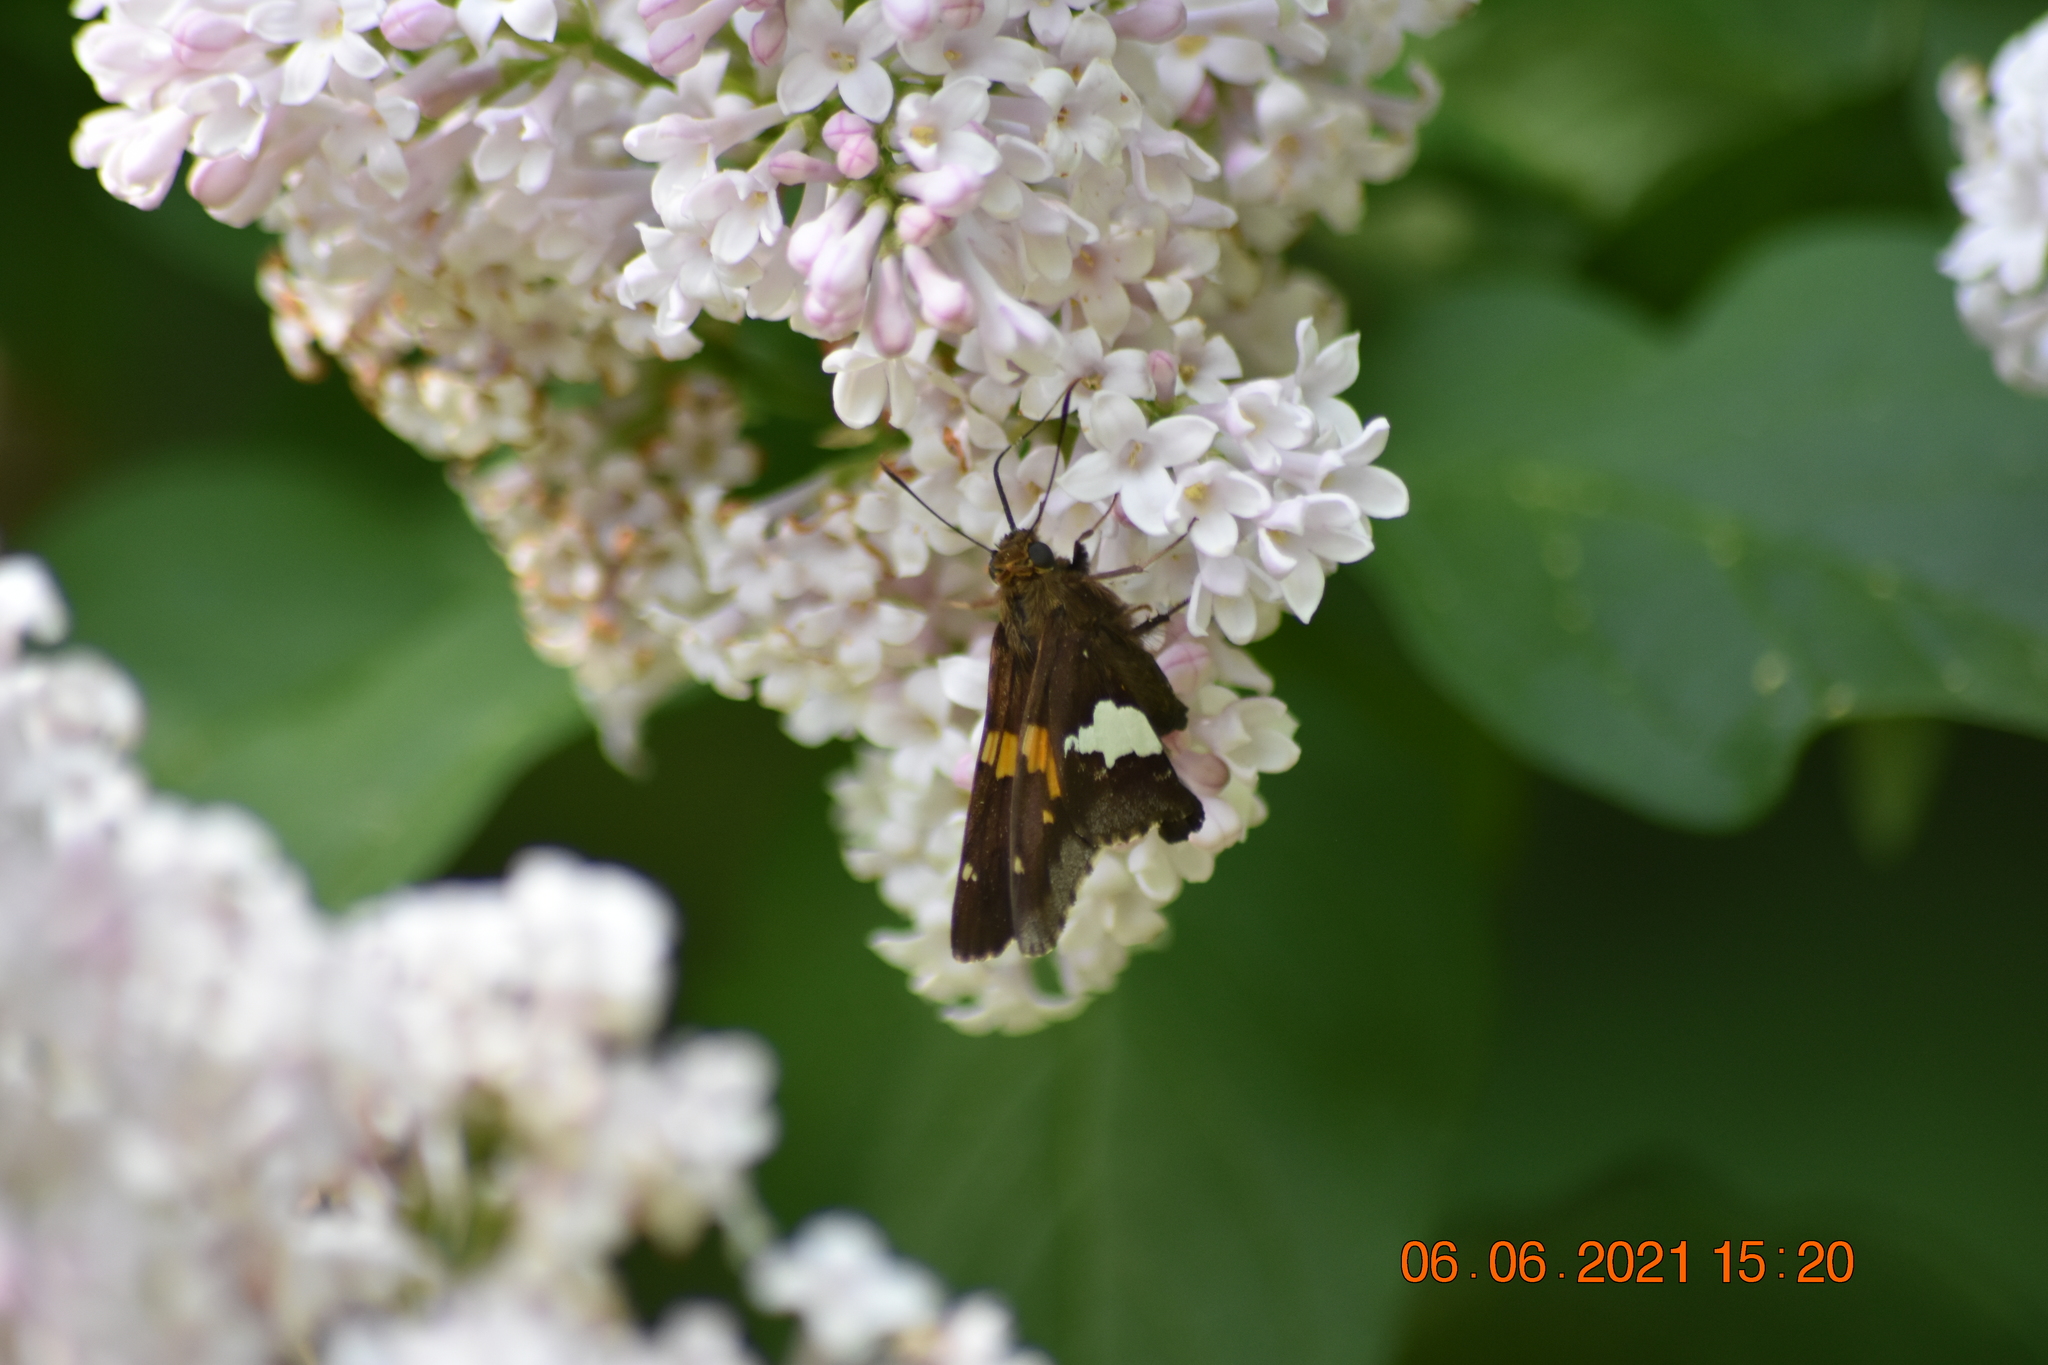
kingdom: Animalia
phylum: Arthropoda
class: Insecta
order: Lepidoptera
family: Hesperiidae
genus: Epargyreus
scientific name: Epargyreus clarus
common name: Silver-spotted skipper
